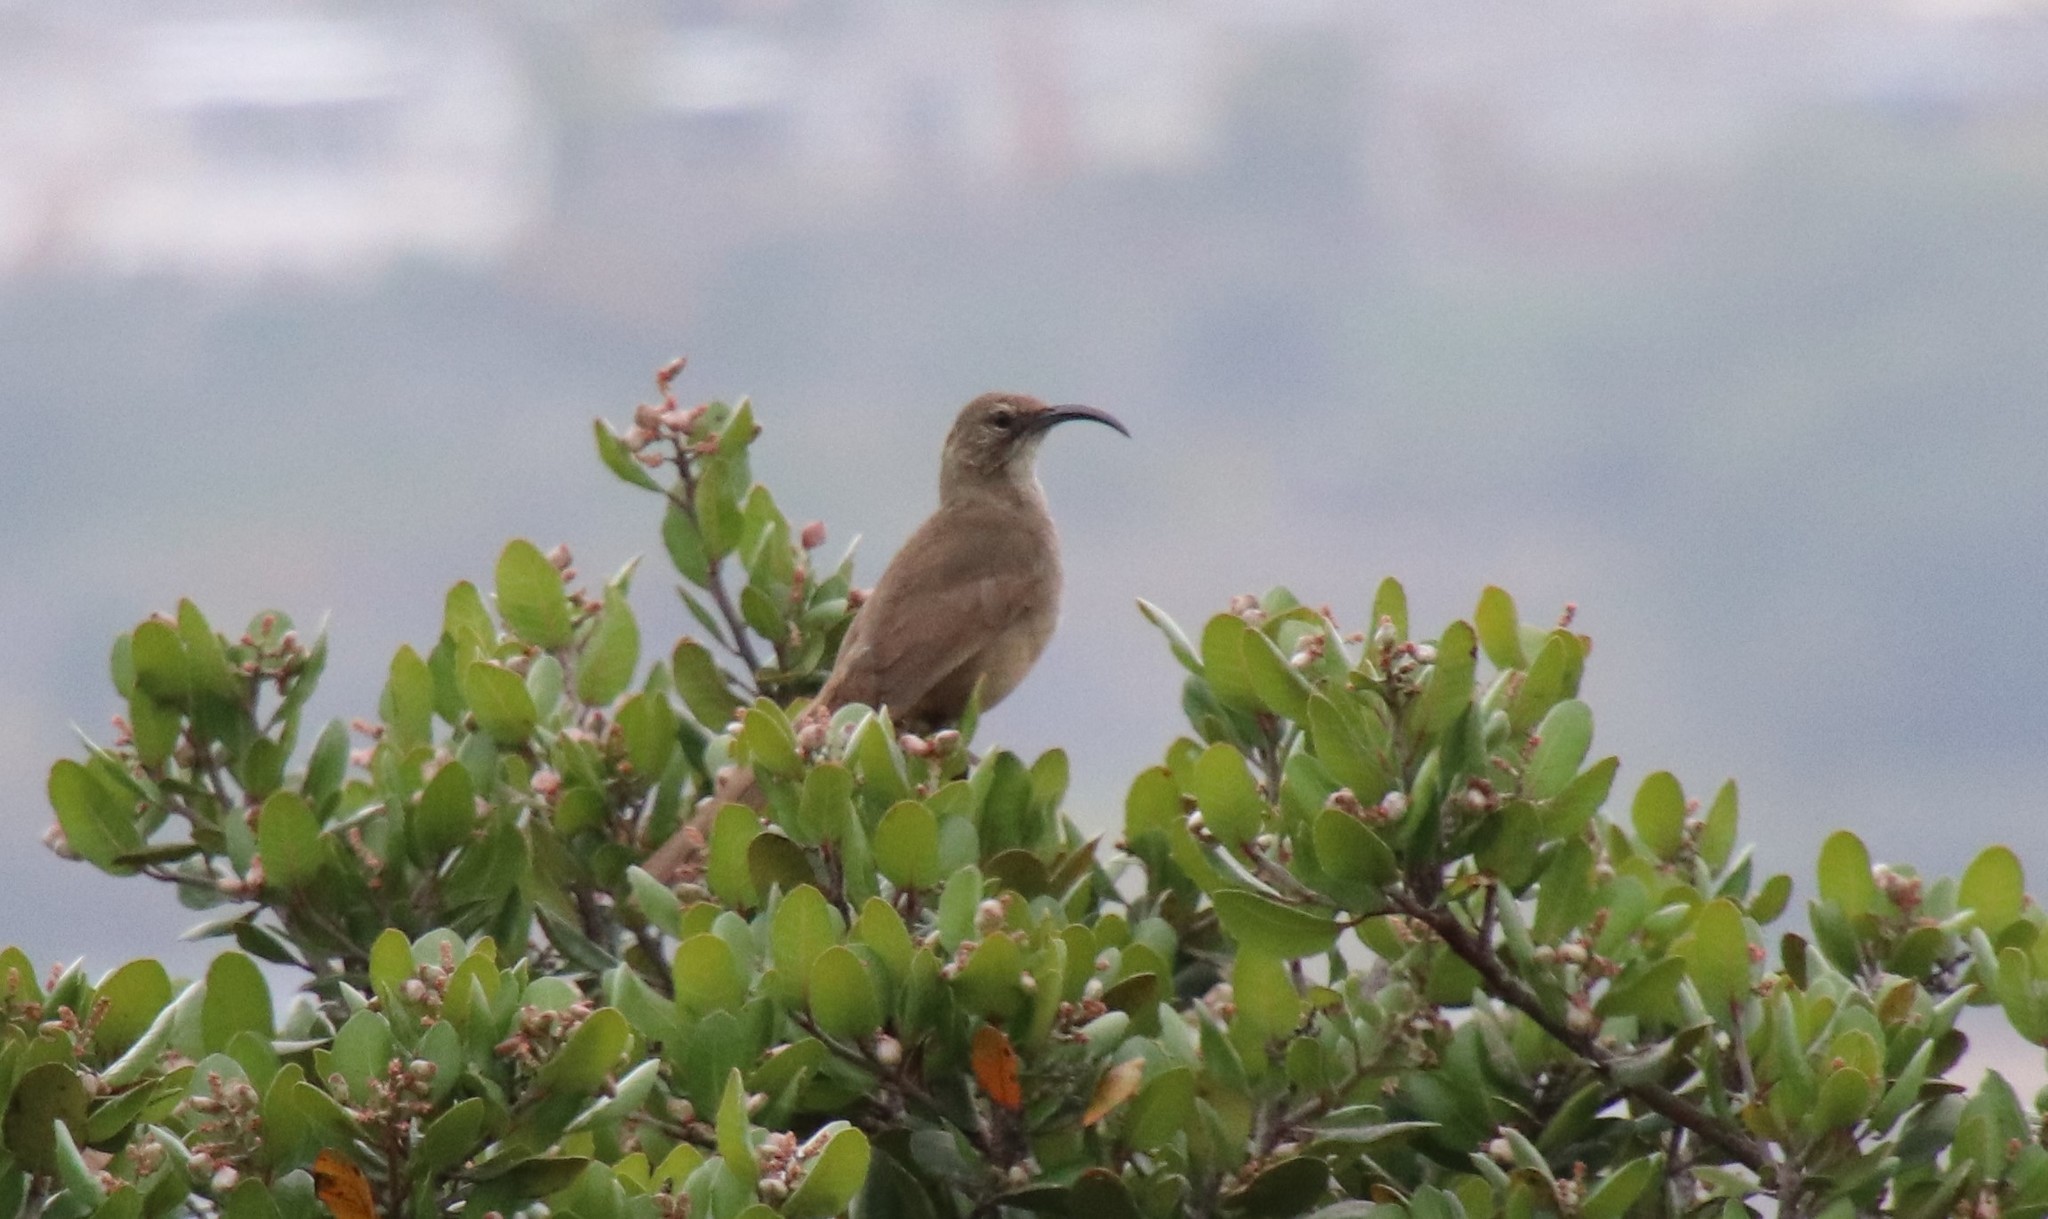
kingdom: Animalia
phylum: Chordata
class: Aves
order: Passeriformes
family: Mimidae
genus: Toxostoma
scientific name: Toxostoma redivivum
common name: California thrasher
